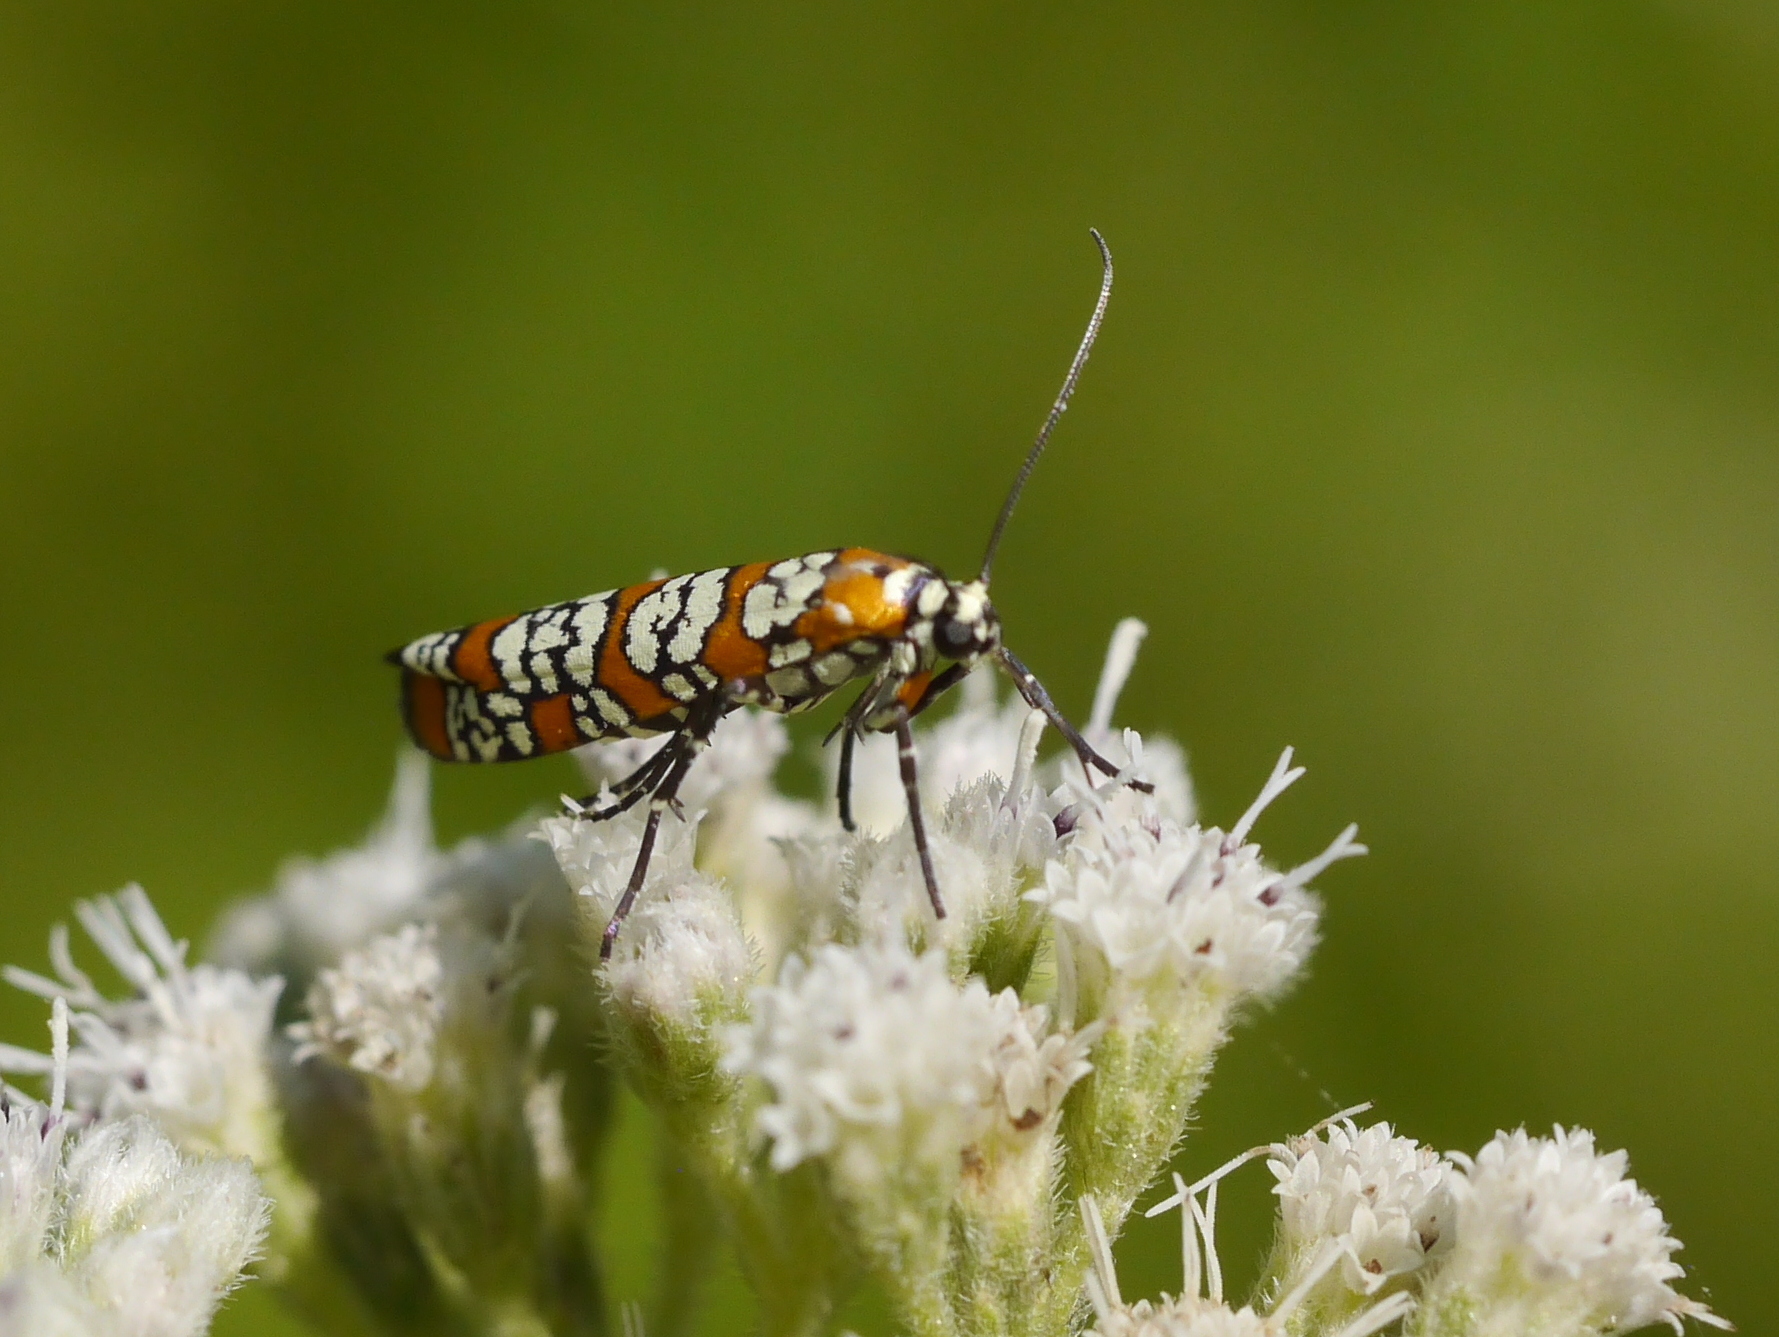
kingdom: Animalia
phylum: Arthropoda
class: Insecta
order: Lepidoptera
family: Attevidae
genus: Atteva
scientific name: Atteva punctella
